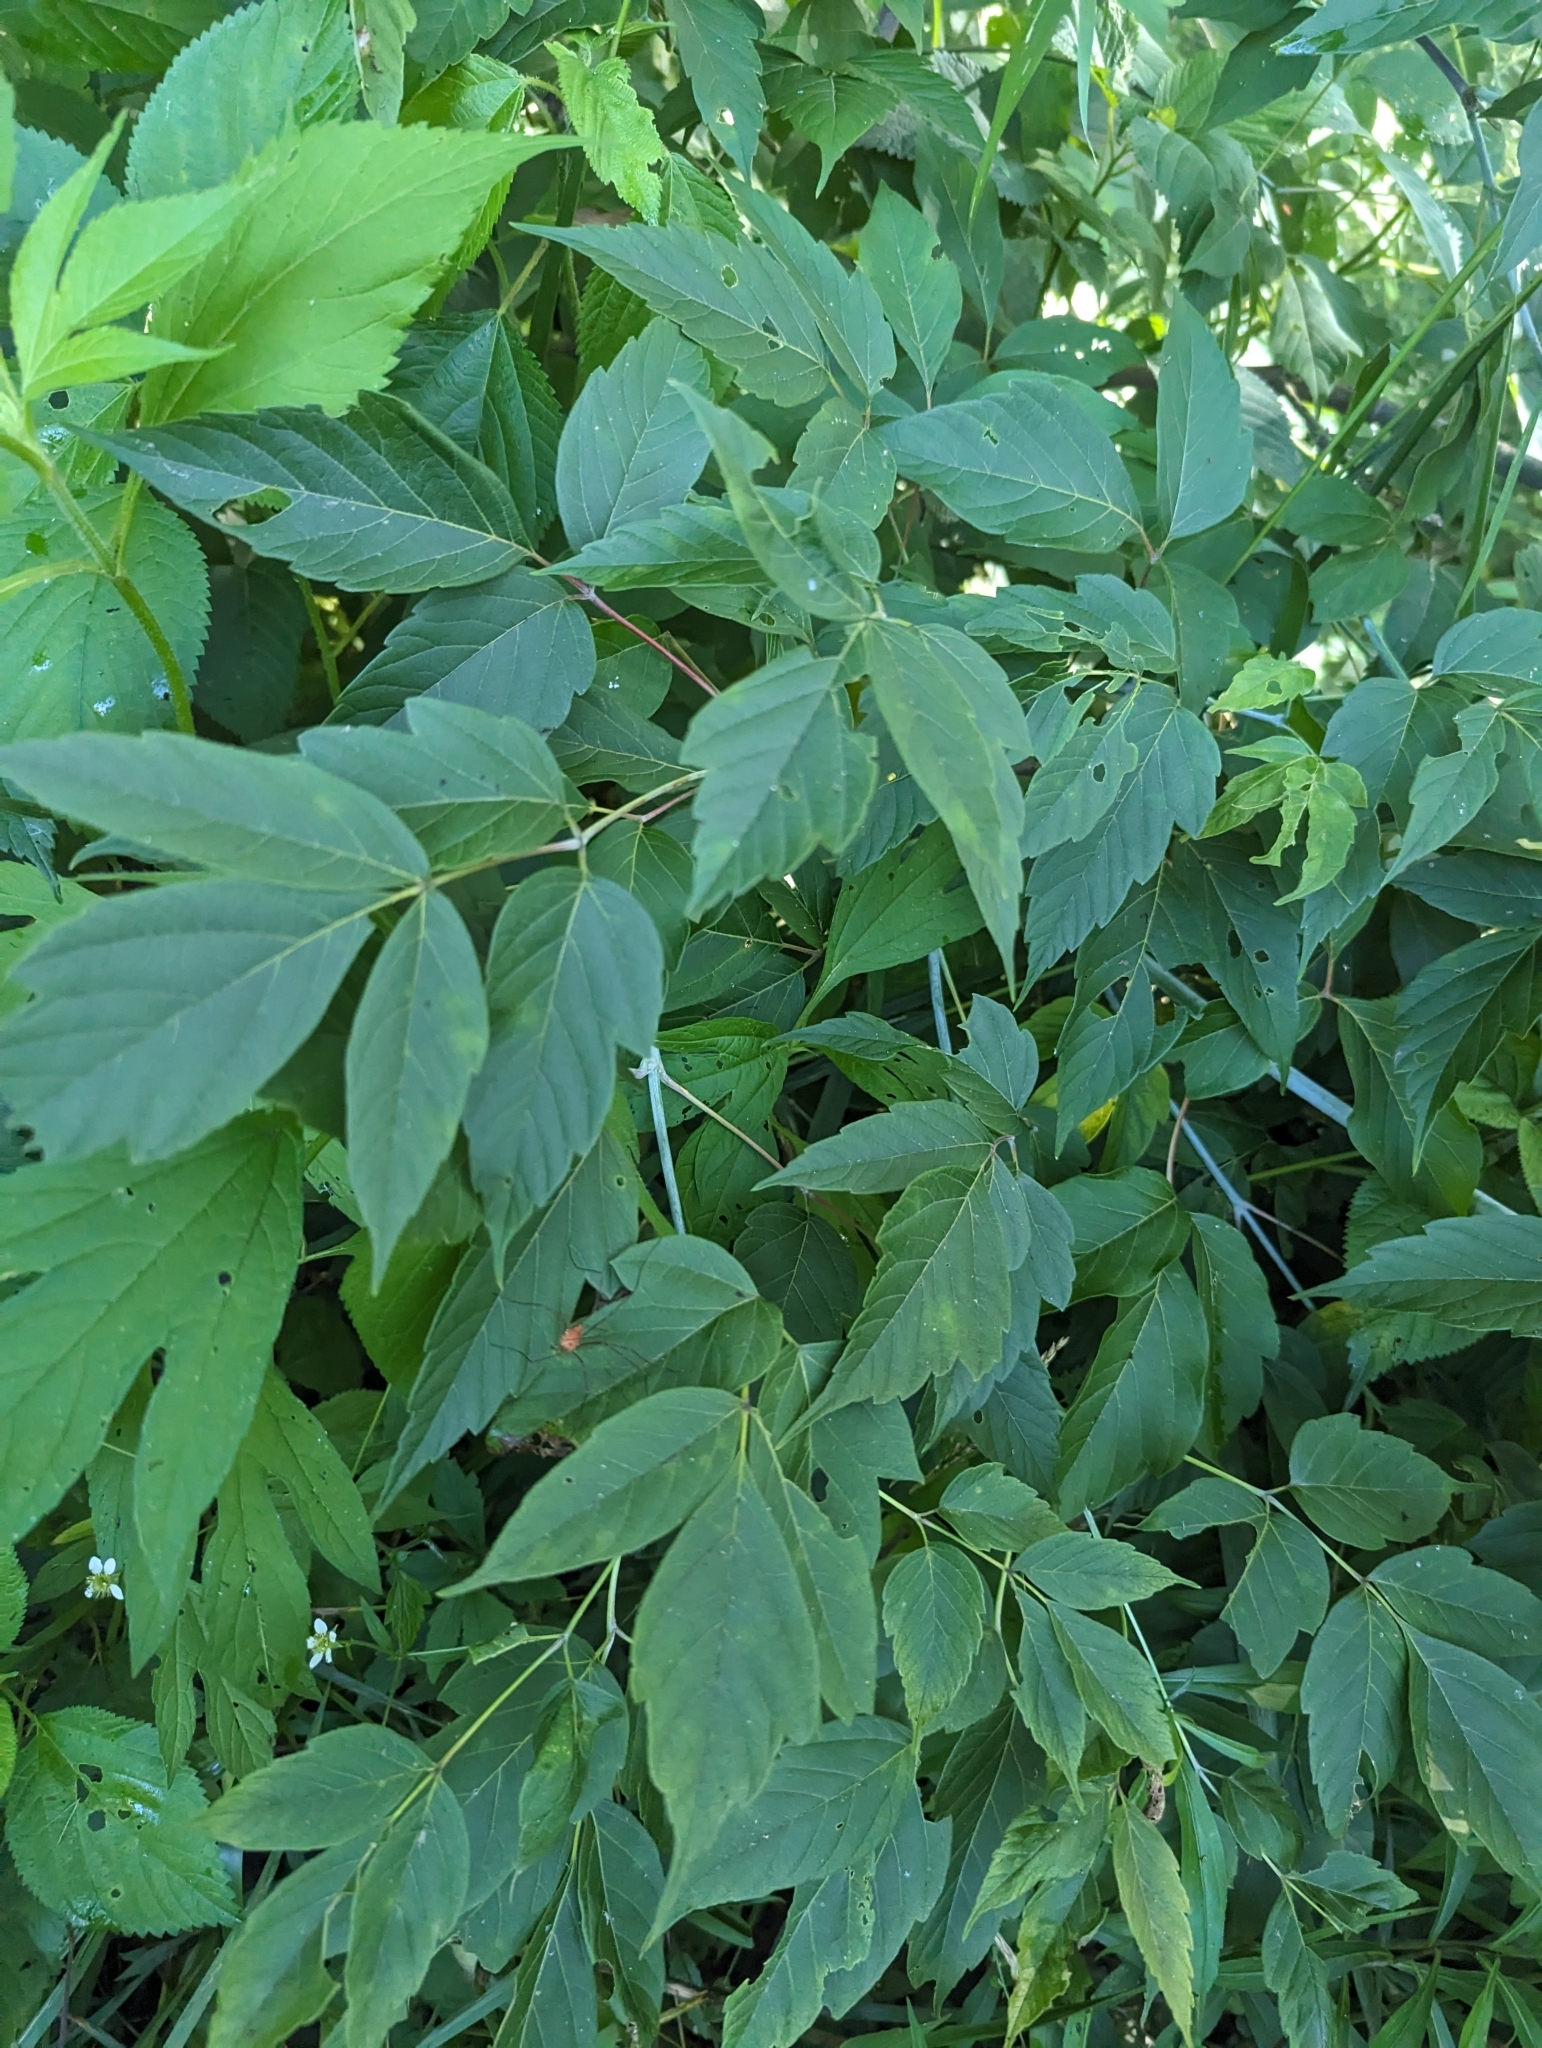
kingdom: Plantae
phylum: Tracheophyta
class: Magnoliopsida
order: Sapindales
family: Sapindaceae
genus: Acer
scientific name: Acer negundo
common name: Ashleaf maple
